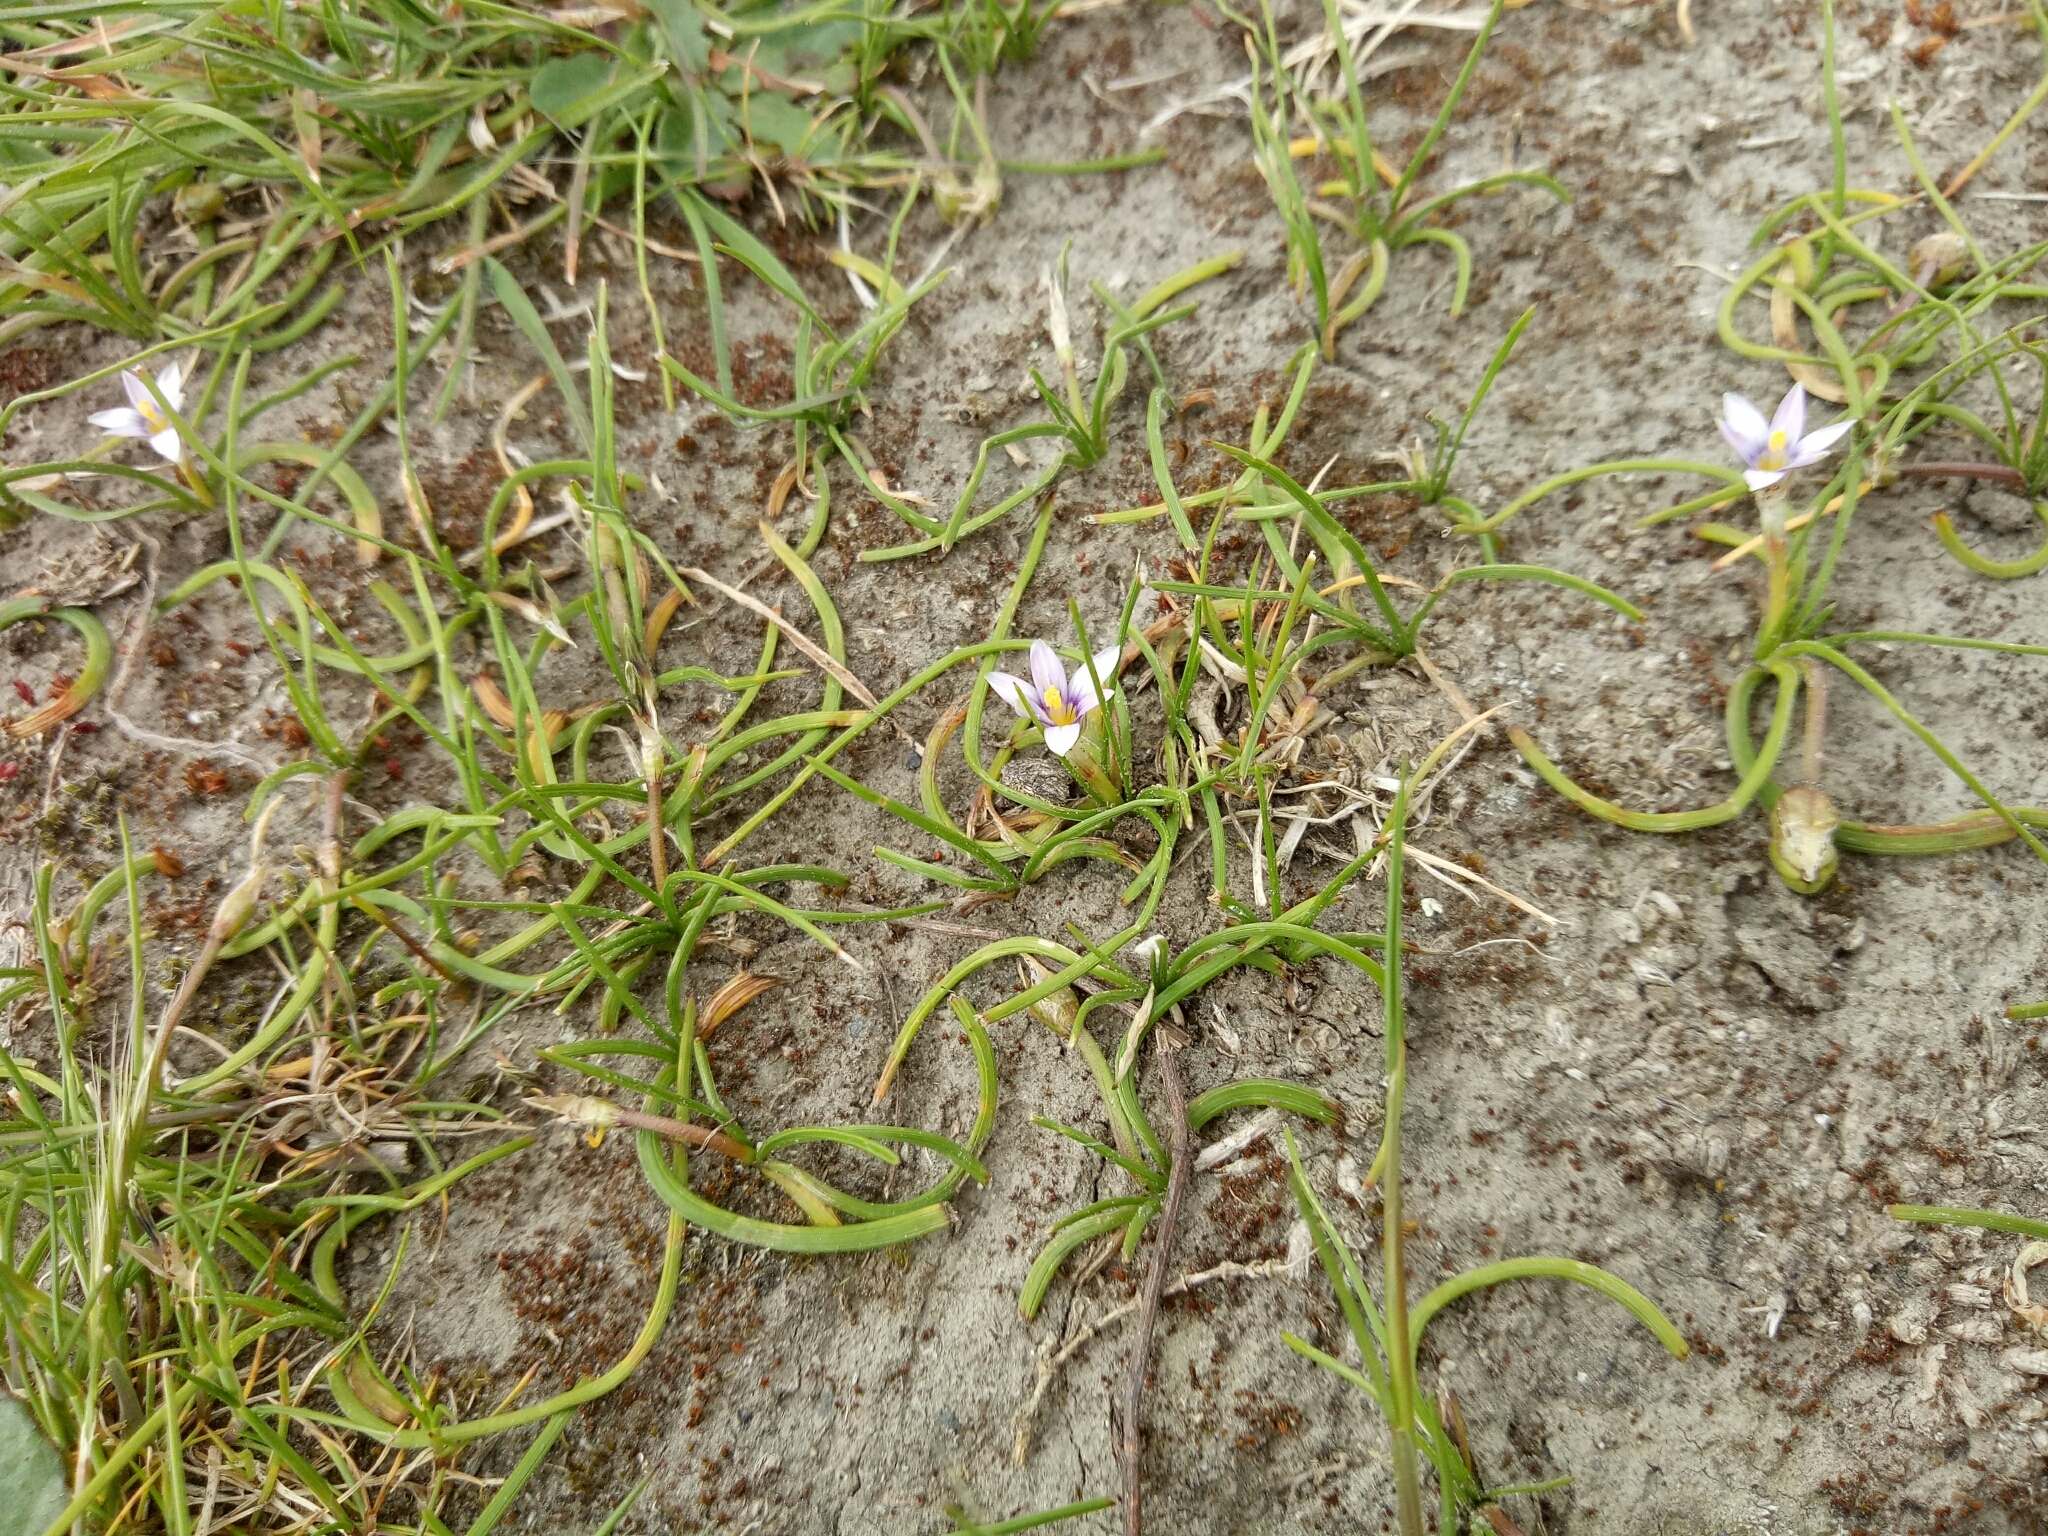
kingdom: Plantae
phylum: Tracheophyta
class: Liliopsida
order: Asparagales
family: Iridaceae
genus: Romulea
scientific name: Romulea minutiflora
